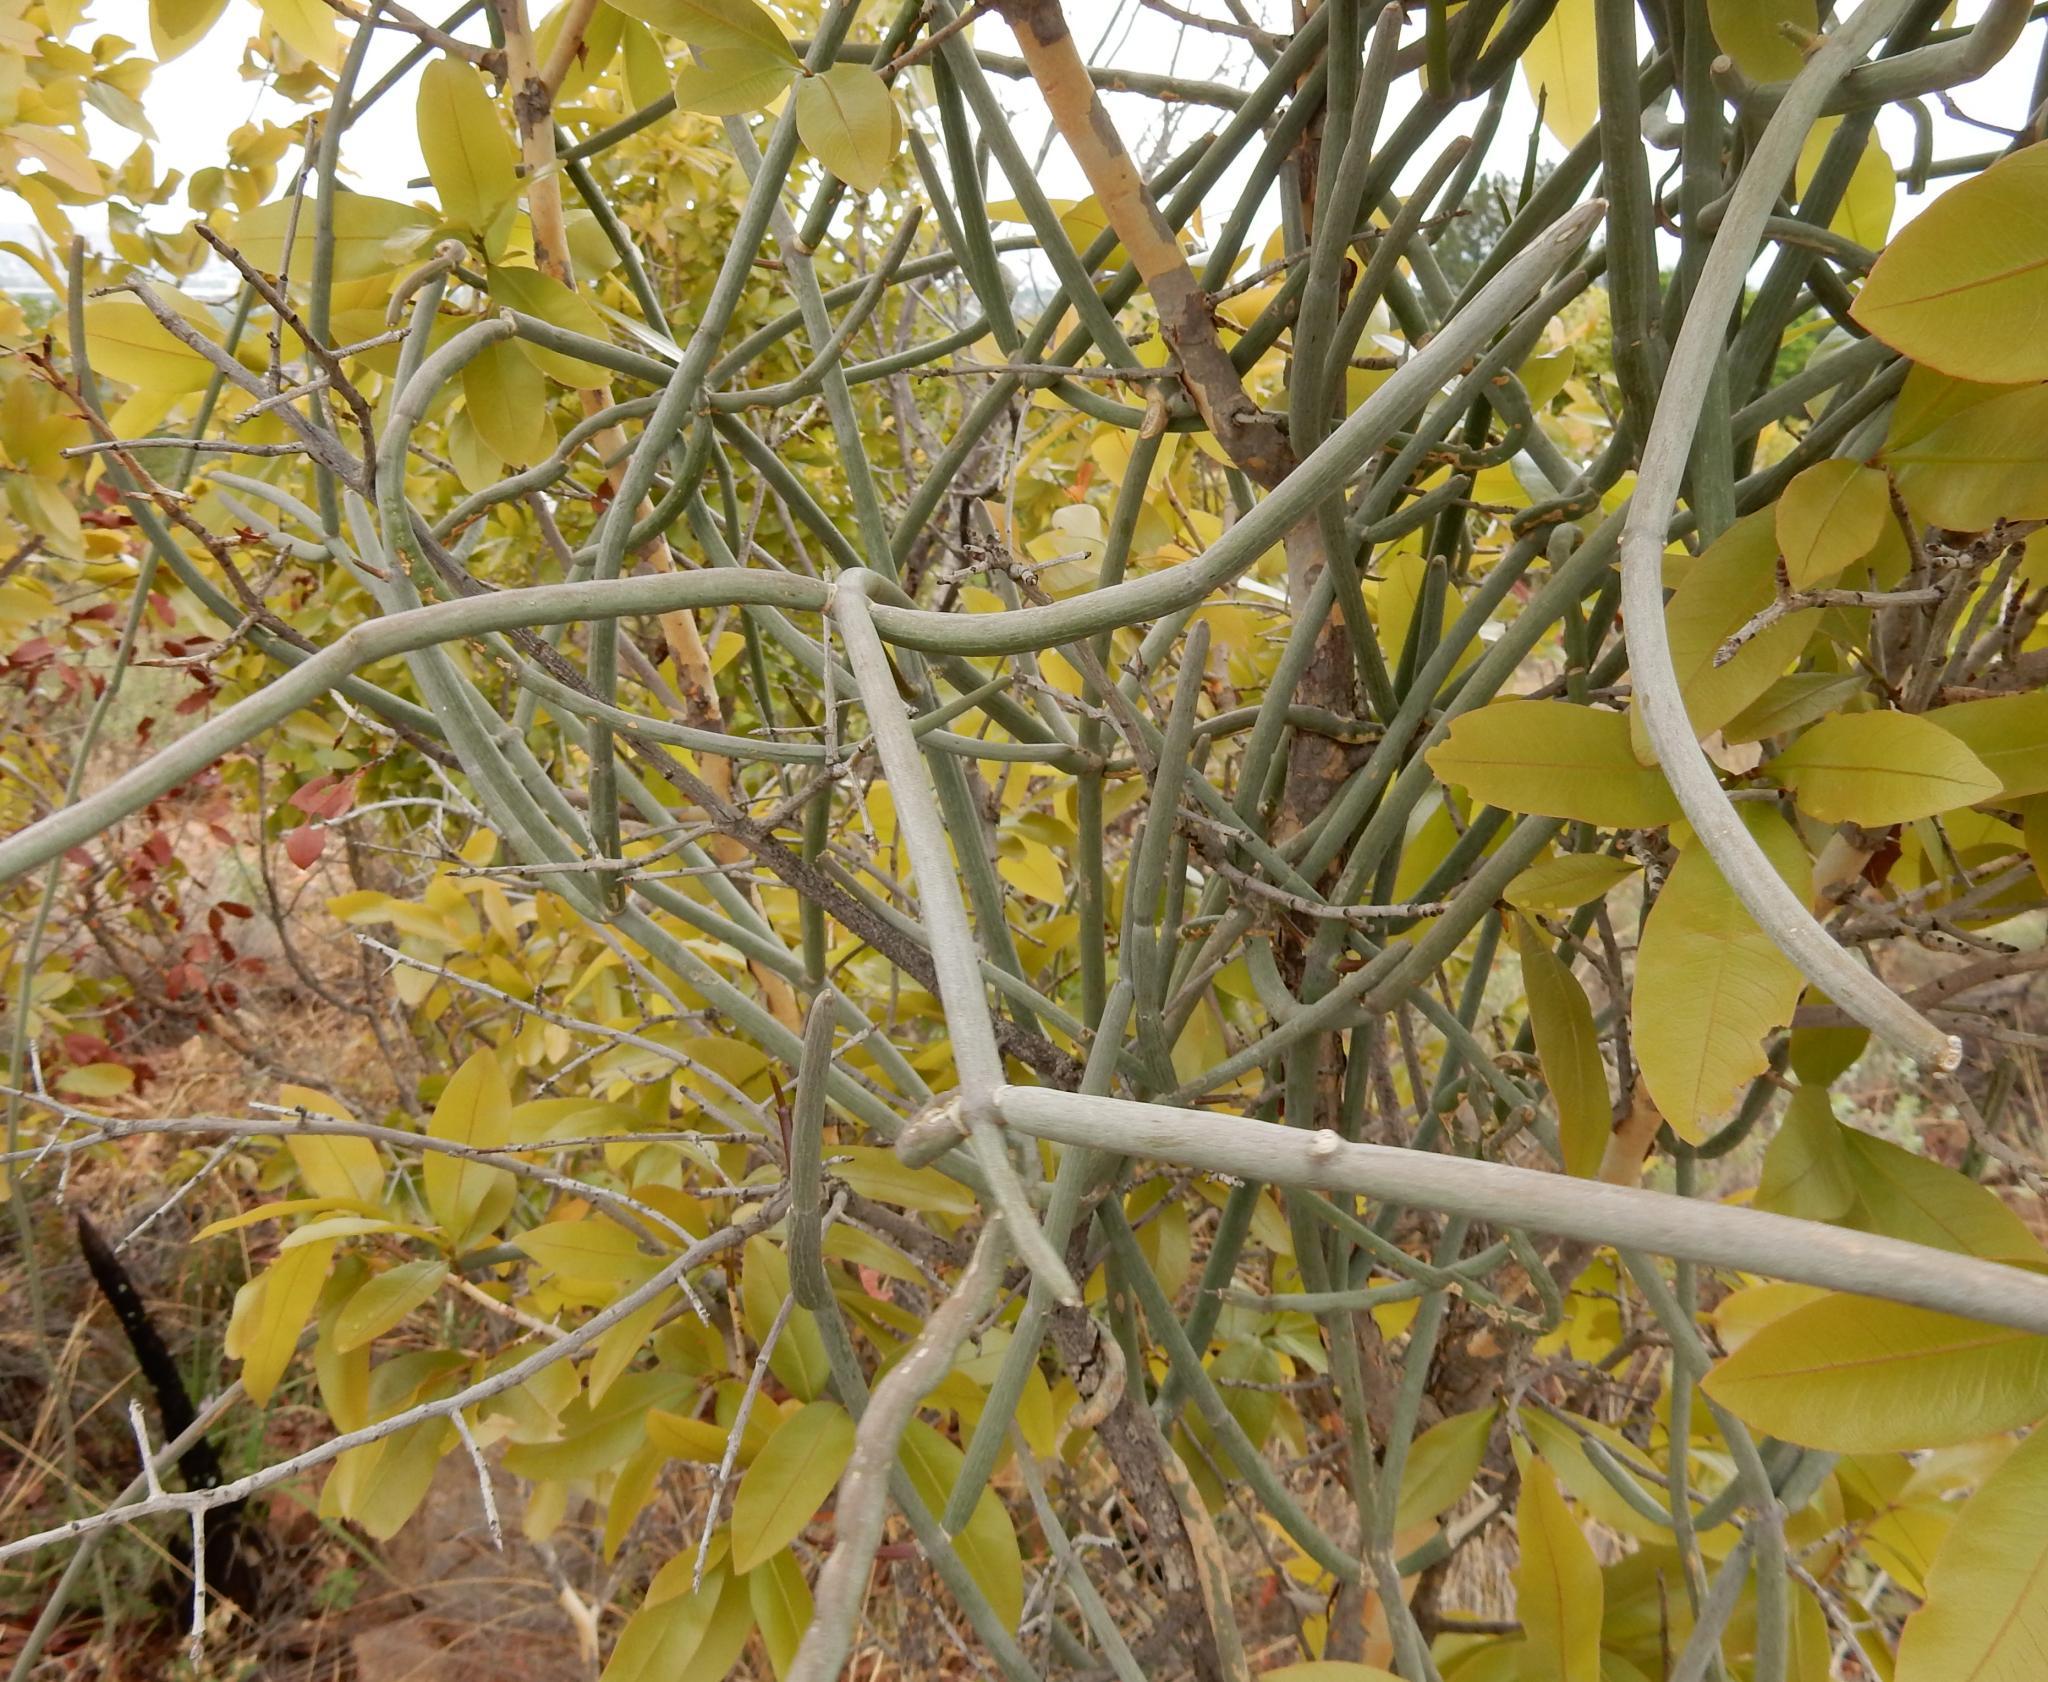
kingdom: Plantae
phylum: Tracheophyta
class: Magnoliopsida
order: Gentianales
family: Apocynaceae
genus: Cynanchum
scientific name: Cynanchum viminale
